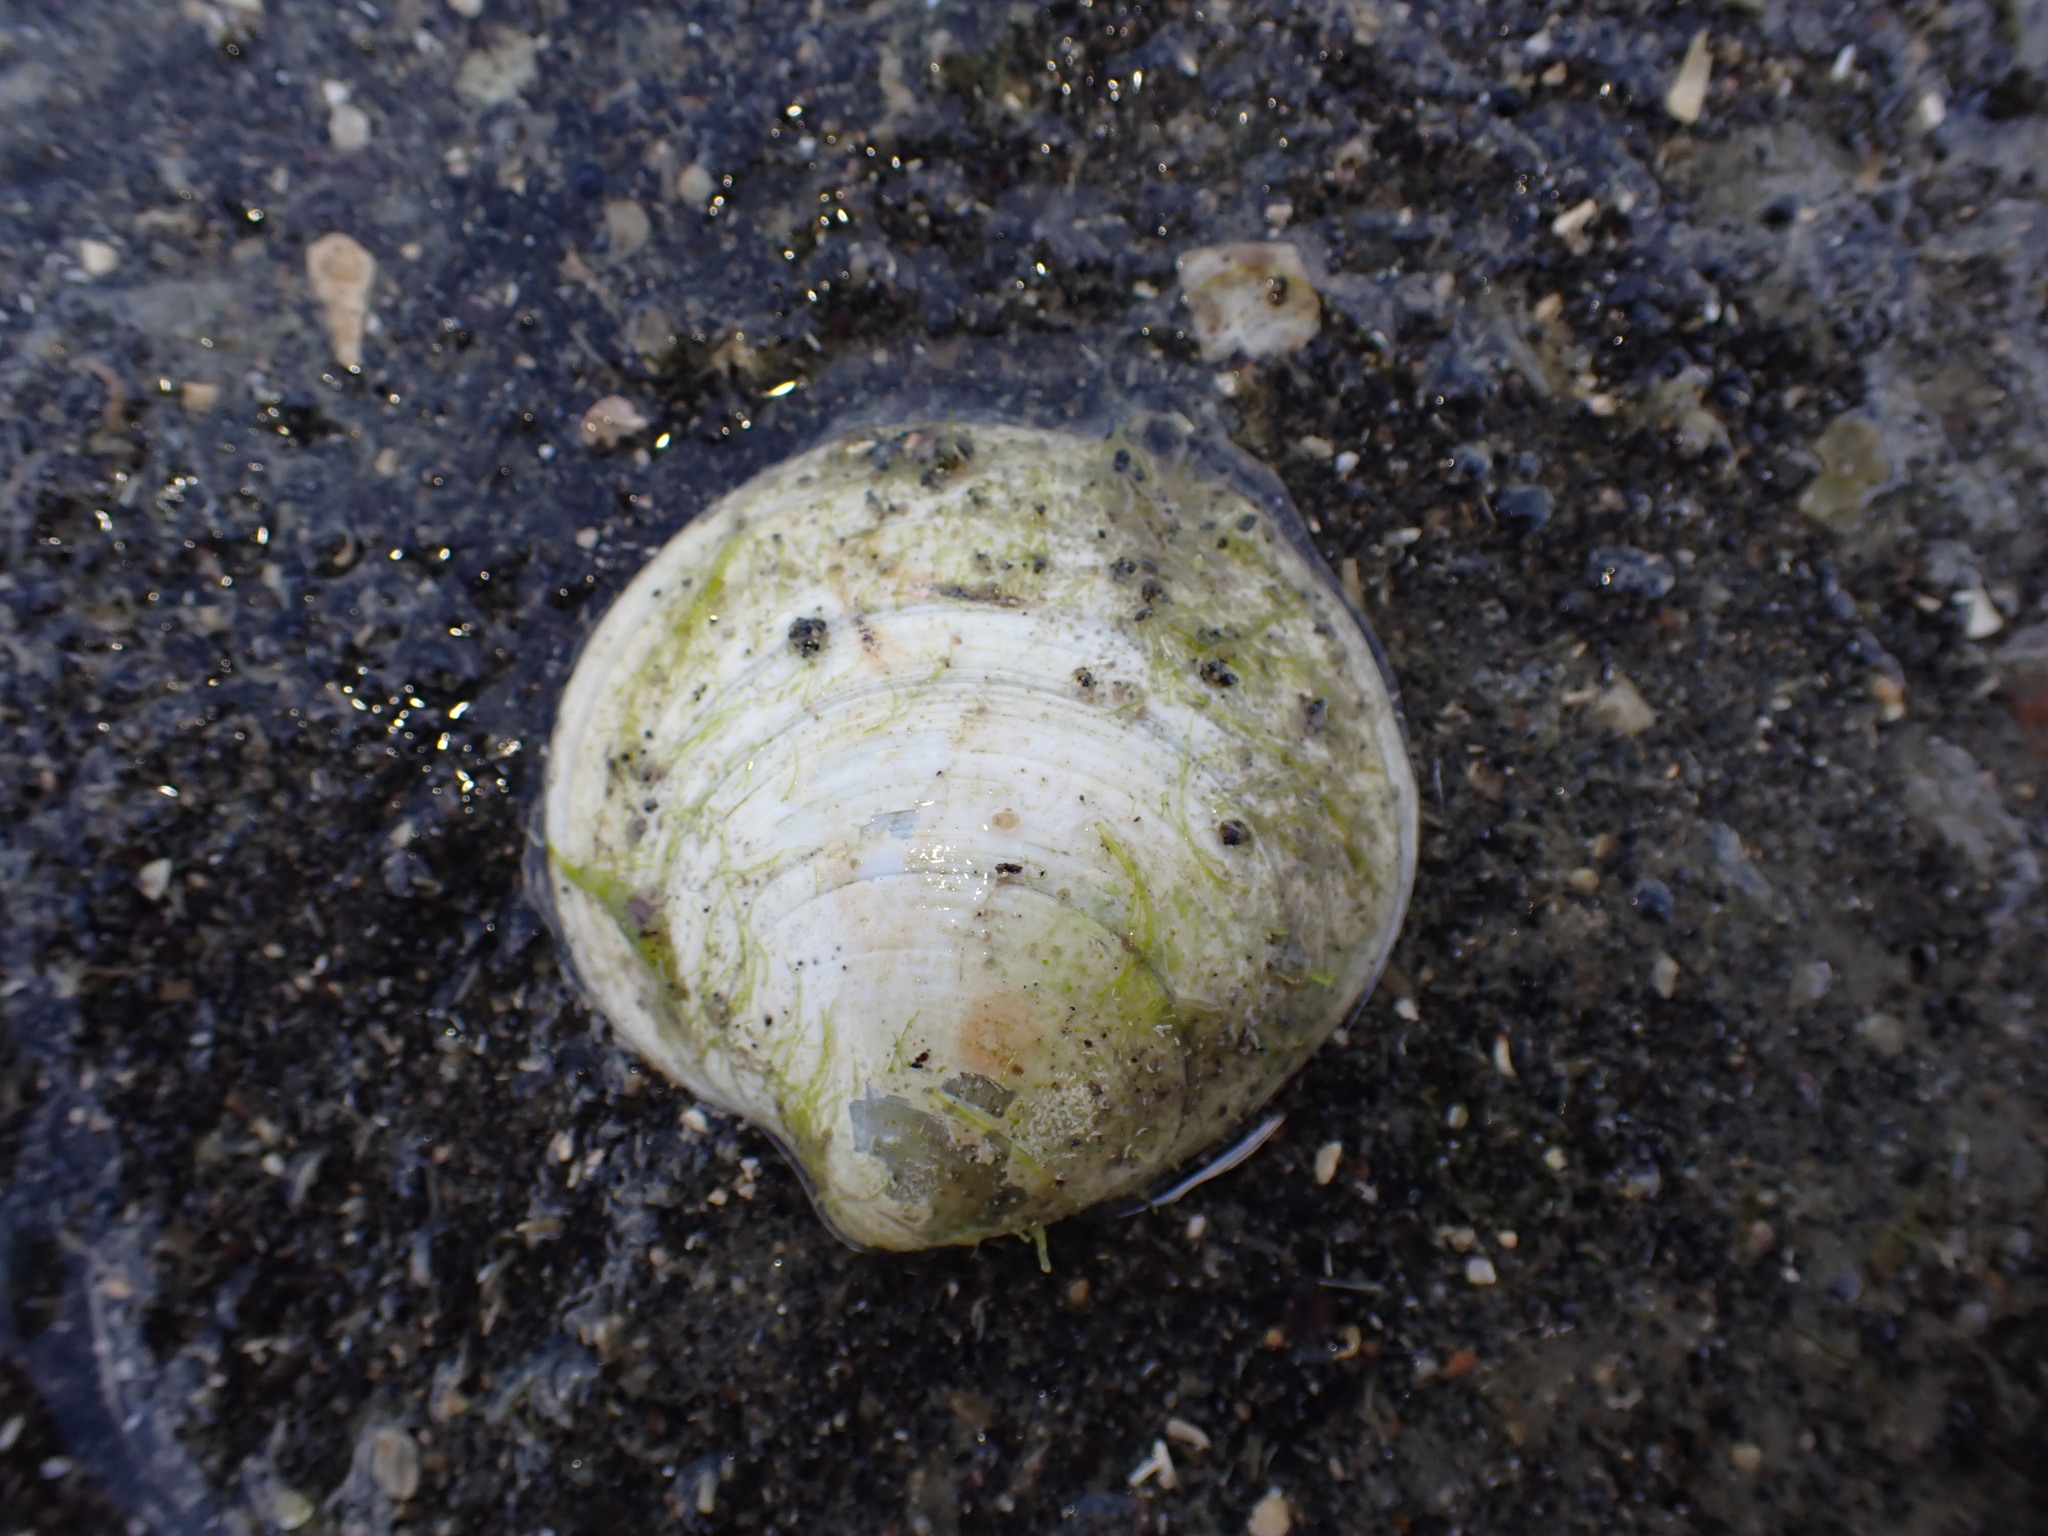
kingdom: Animalia
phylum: Mollusca
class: Bivalvia
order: Venerida
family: Veneridae
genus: Dosinia
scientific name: Dosinia lambata
